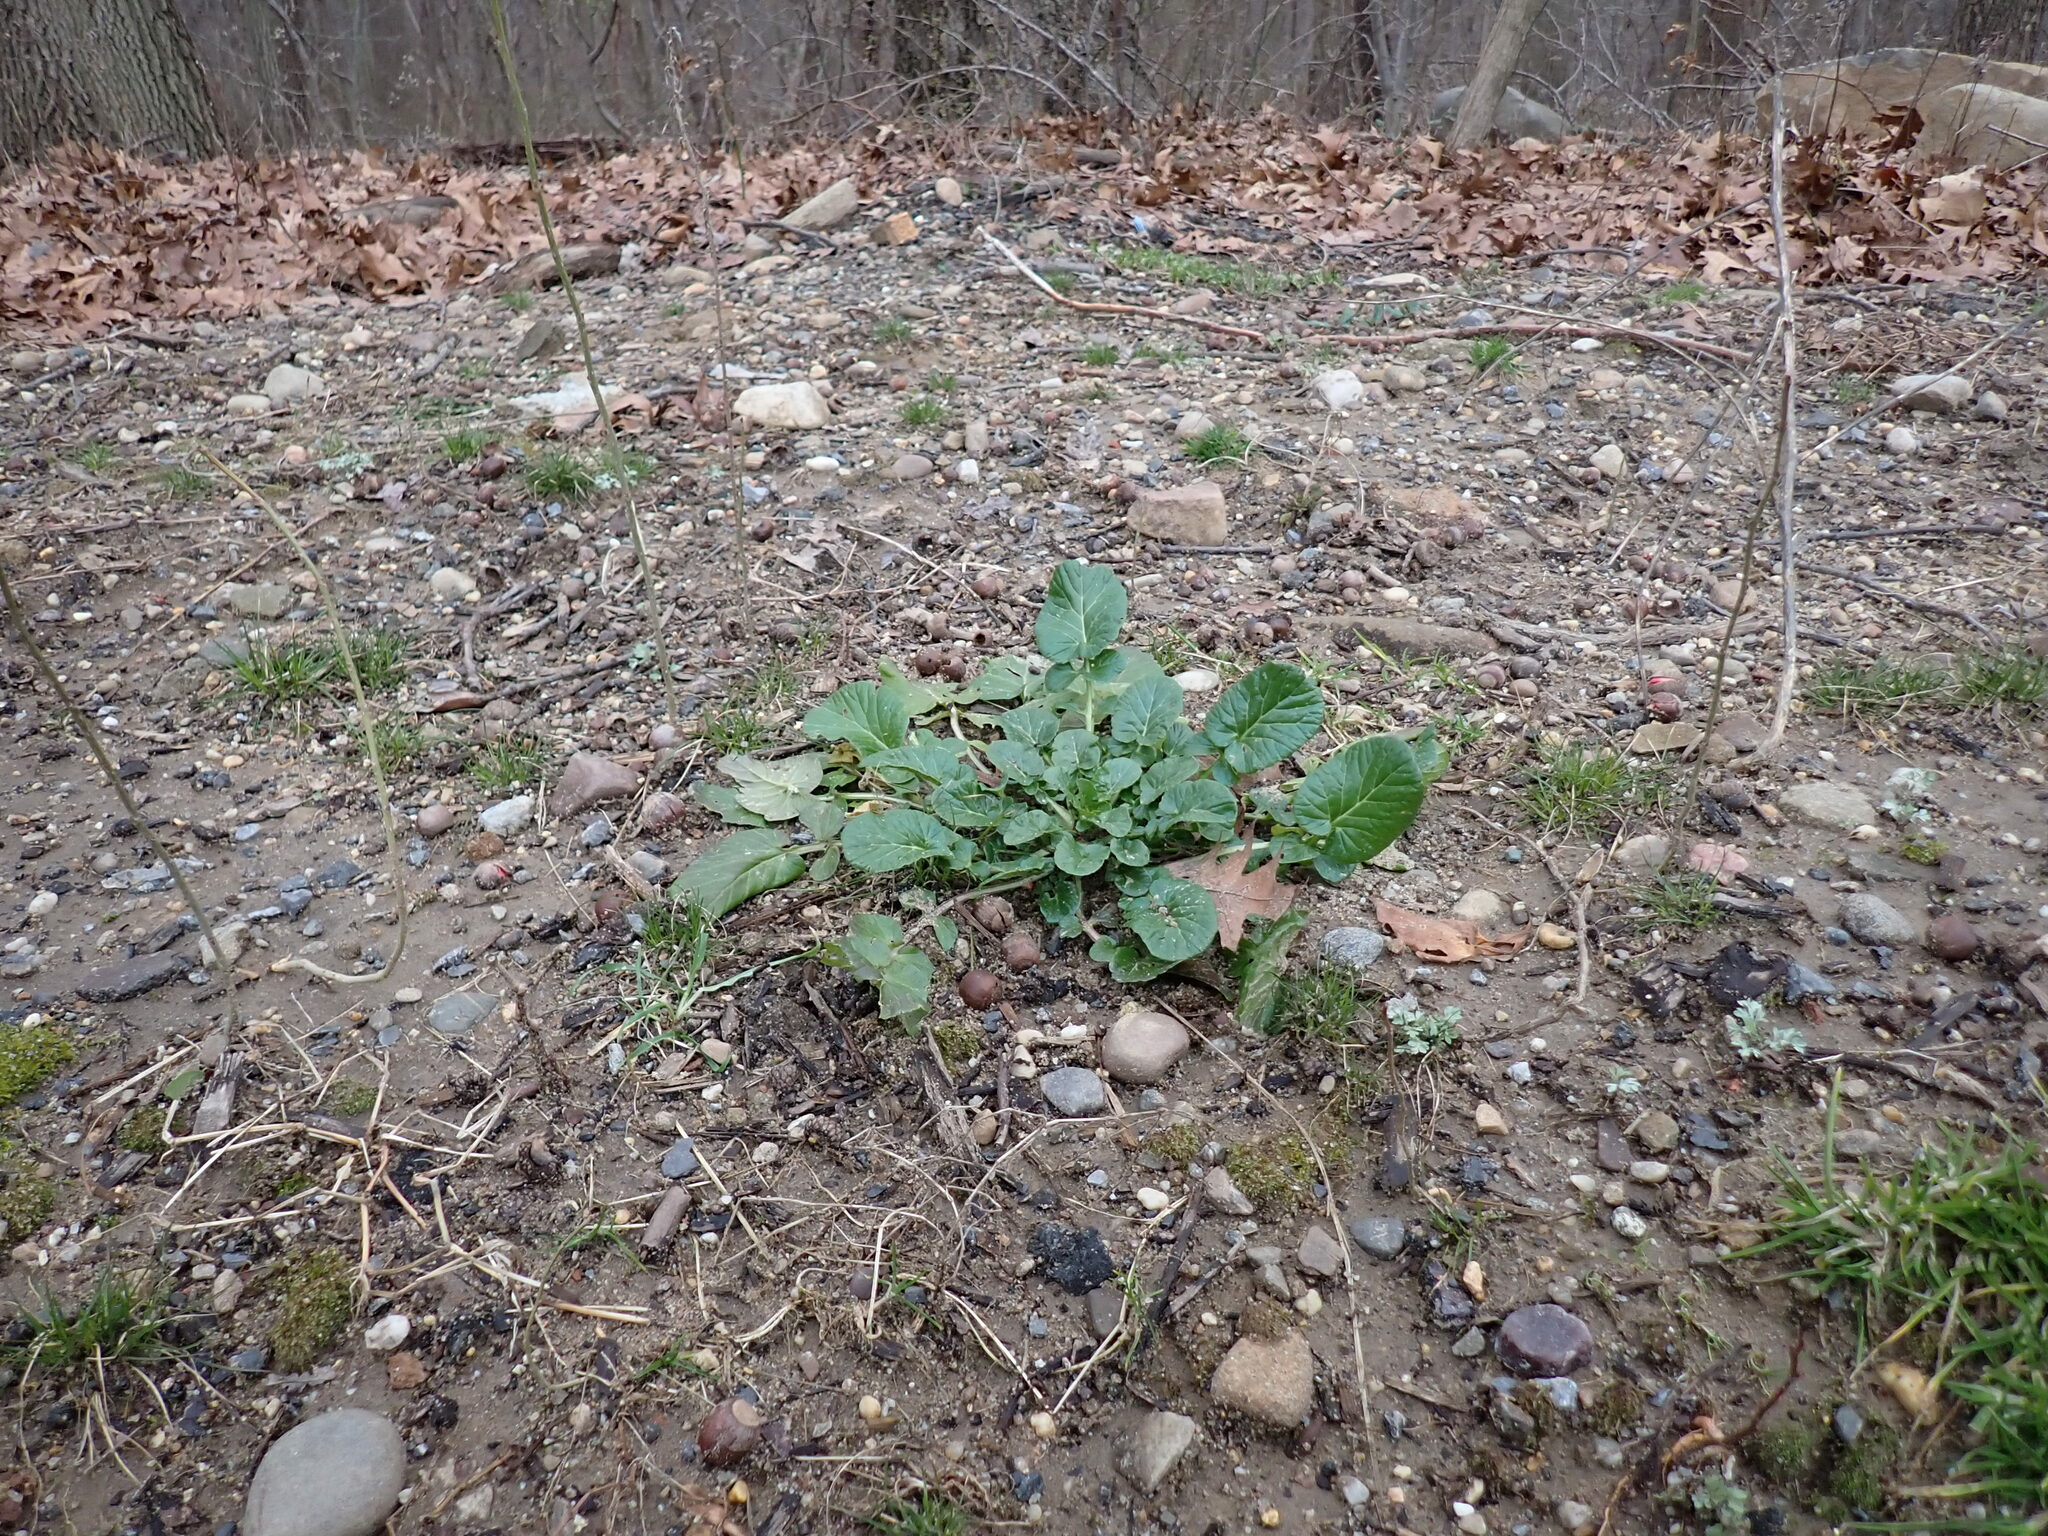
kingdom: Plantae
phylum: Tracheophyta
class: Magnoliopsida
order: Brassicales
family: Brassicaceae
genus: Barbarea
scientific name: Barbarea vulgaris
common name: Cressy-greens
